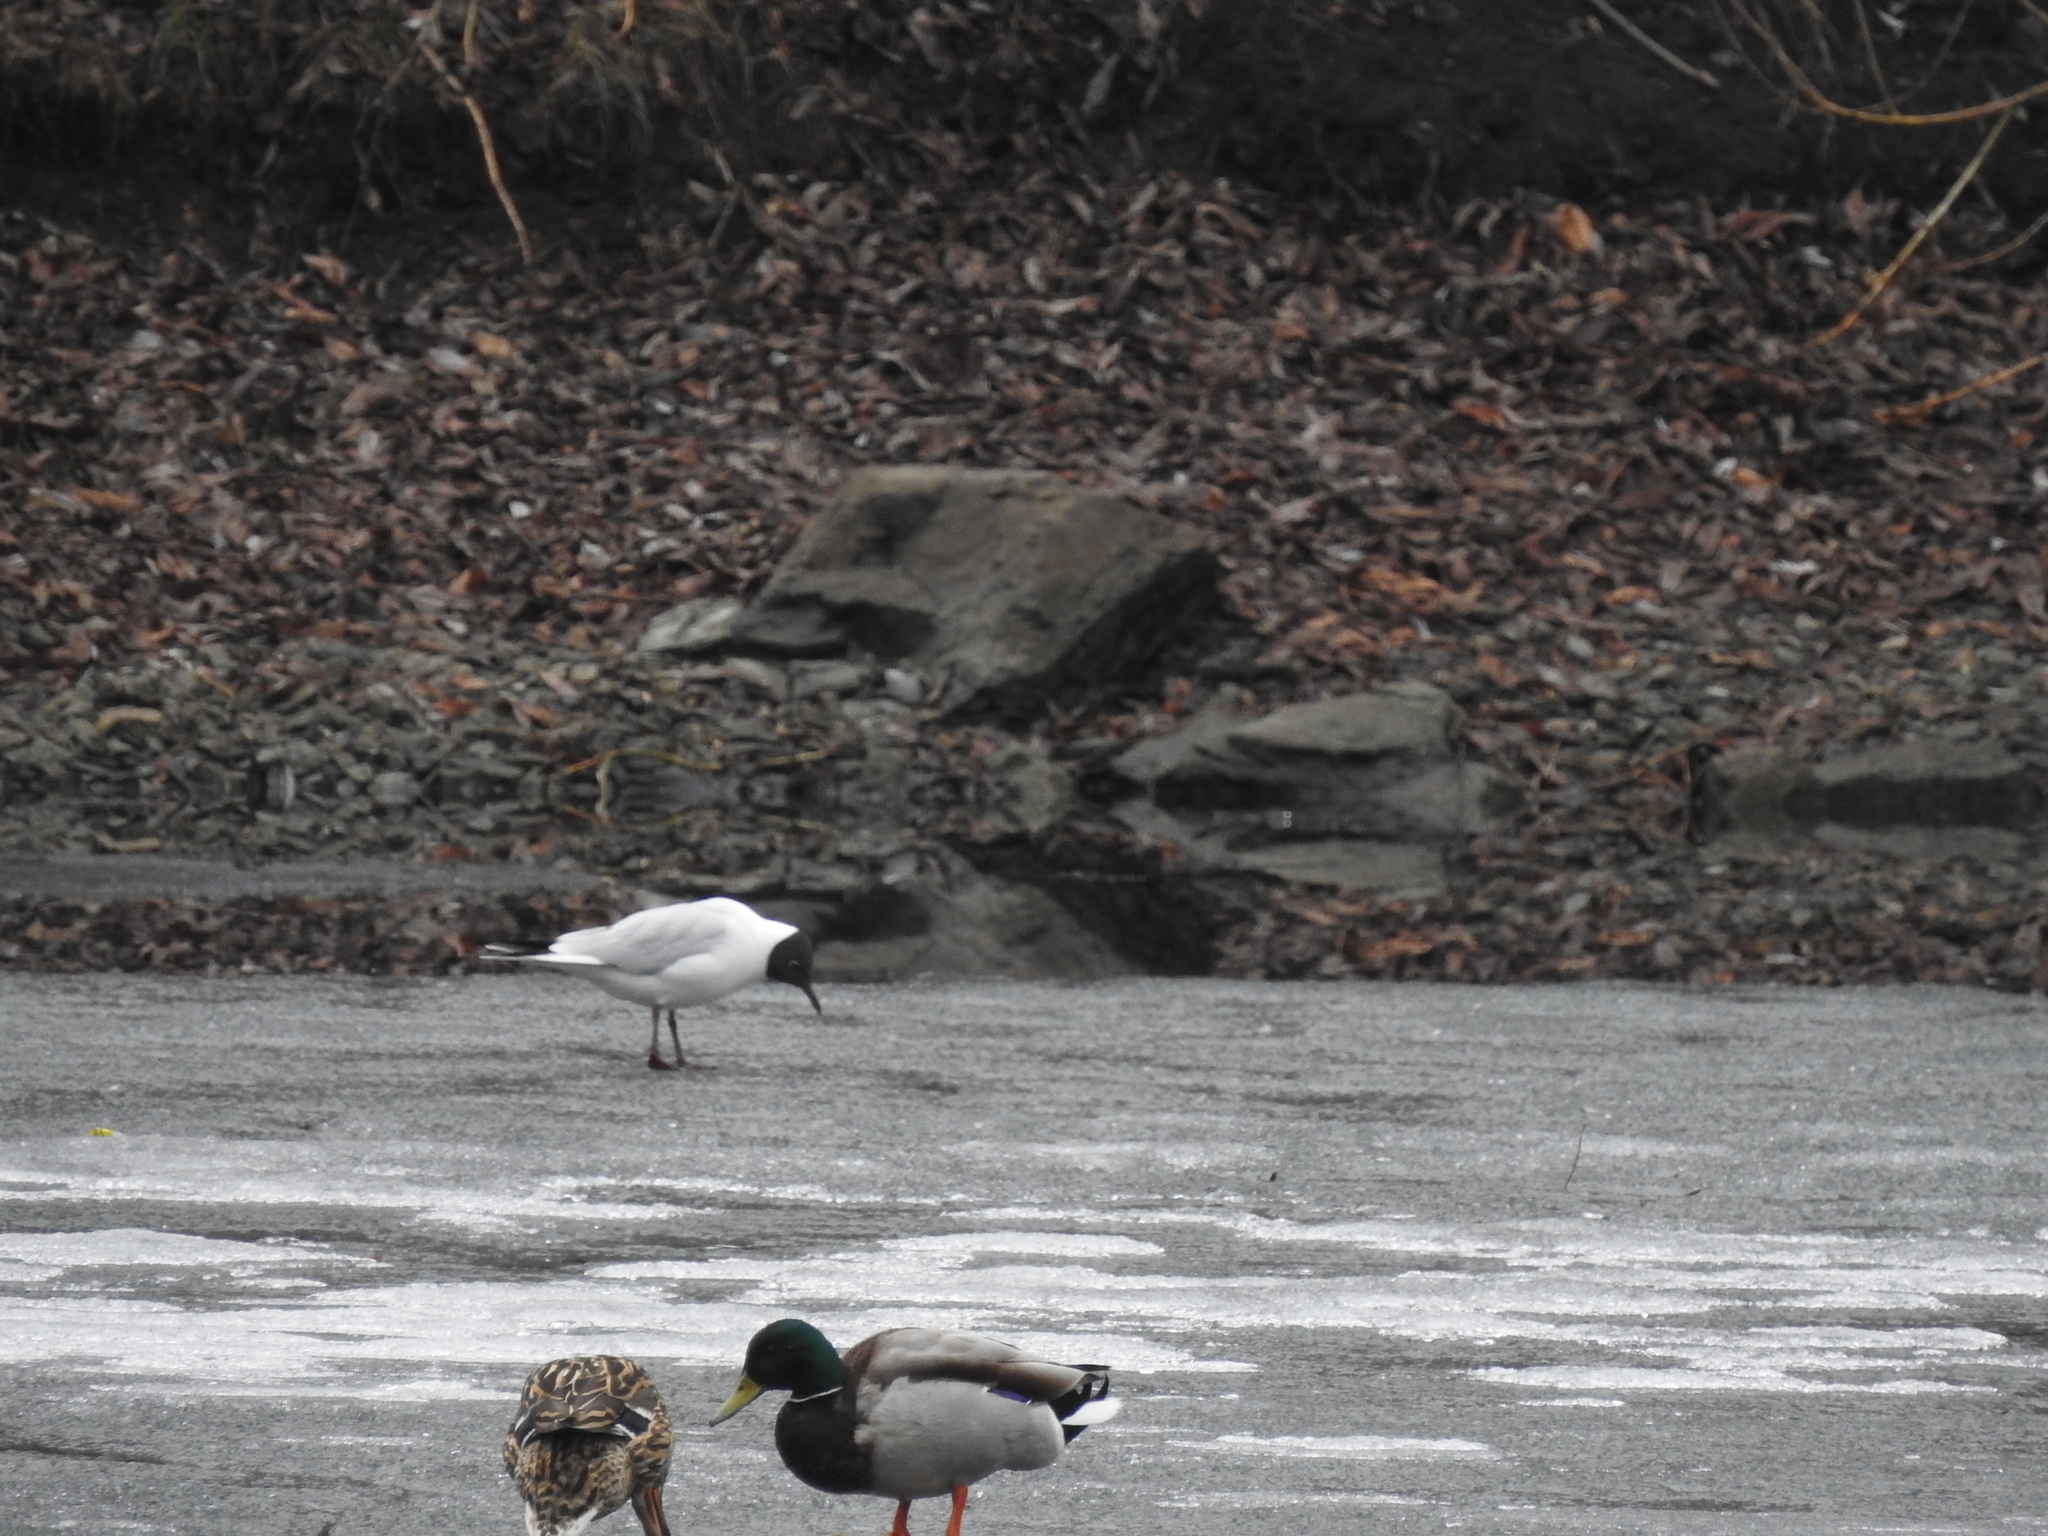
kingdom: Animalia
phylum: Chordata
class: Aves
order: Charadriiformes
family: Laridae
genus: Chroicocephalus
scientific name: Chroicocephalus ridibundus
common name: Black-headed gull
